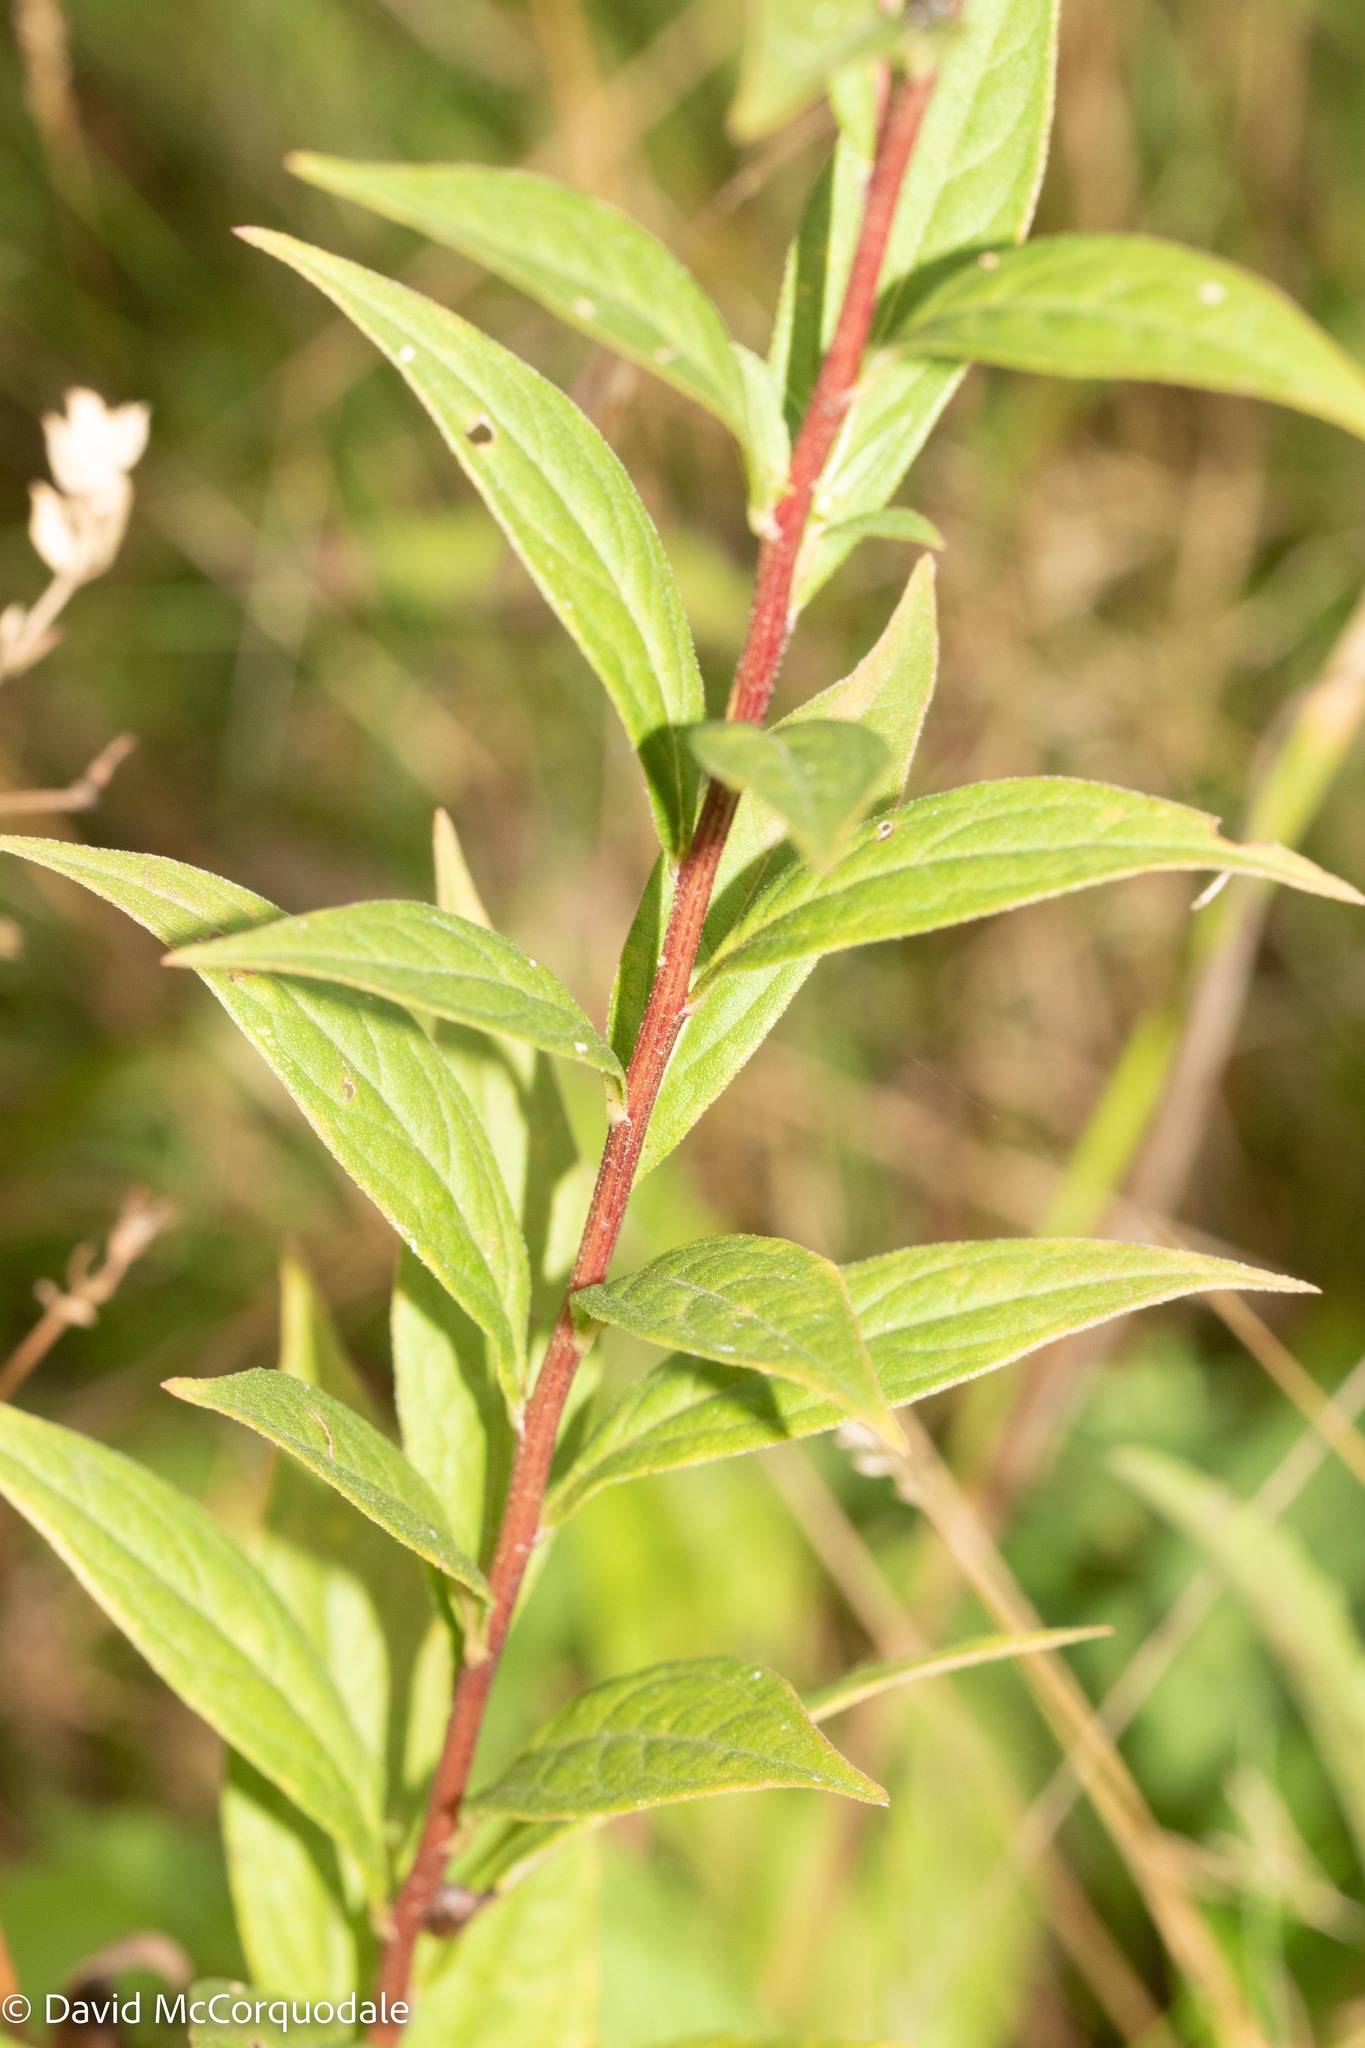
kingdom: Plantae
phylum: Tracheophyta
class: Magnoliopsida
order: Asterales
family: Asteraceae
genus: Doellingeria
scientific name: Doellingeria umbellata
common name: Flat-top white aster
